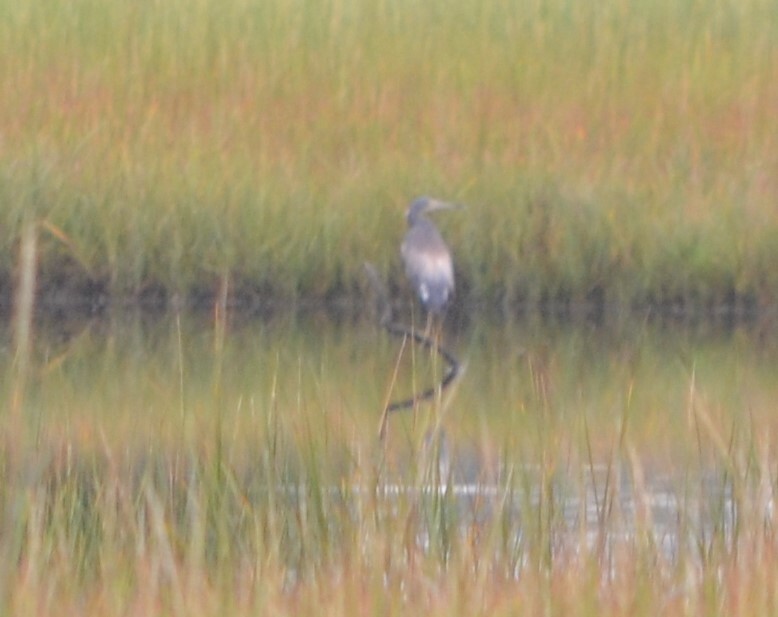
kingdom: Animalia
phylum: Chordata
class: Aves
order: Pelecaniformes
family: Ardeidae
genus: Egretta
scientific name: Egretta tricolor
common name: Tricolored heron
